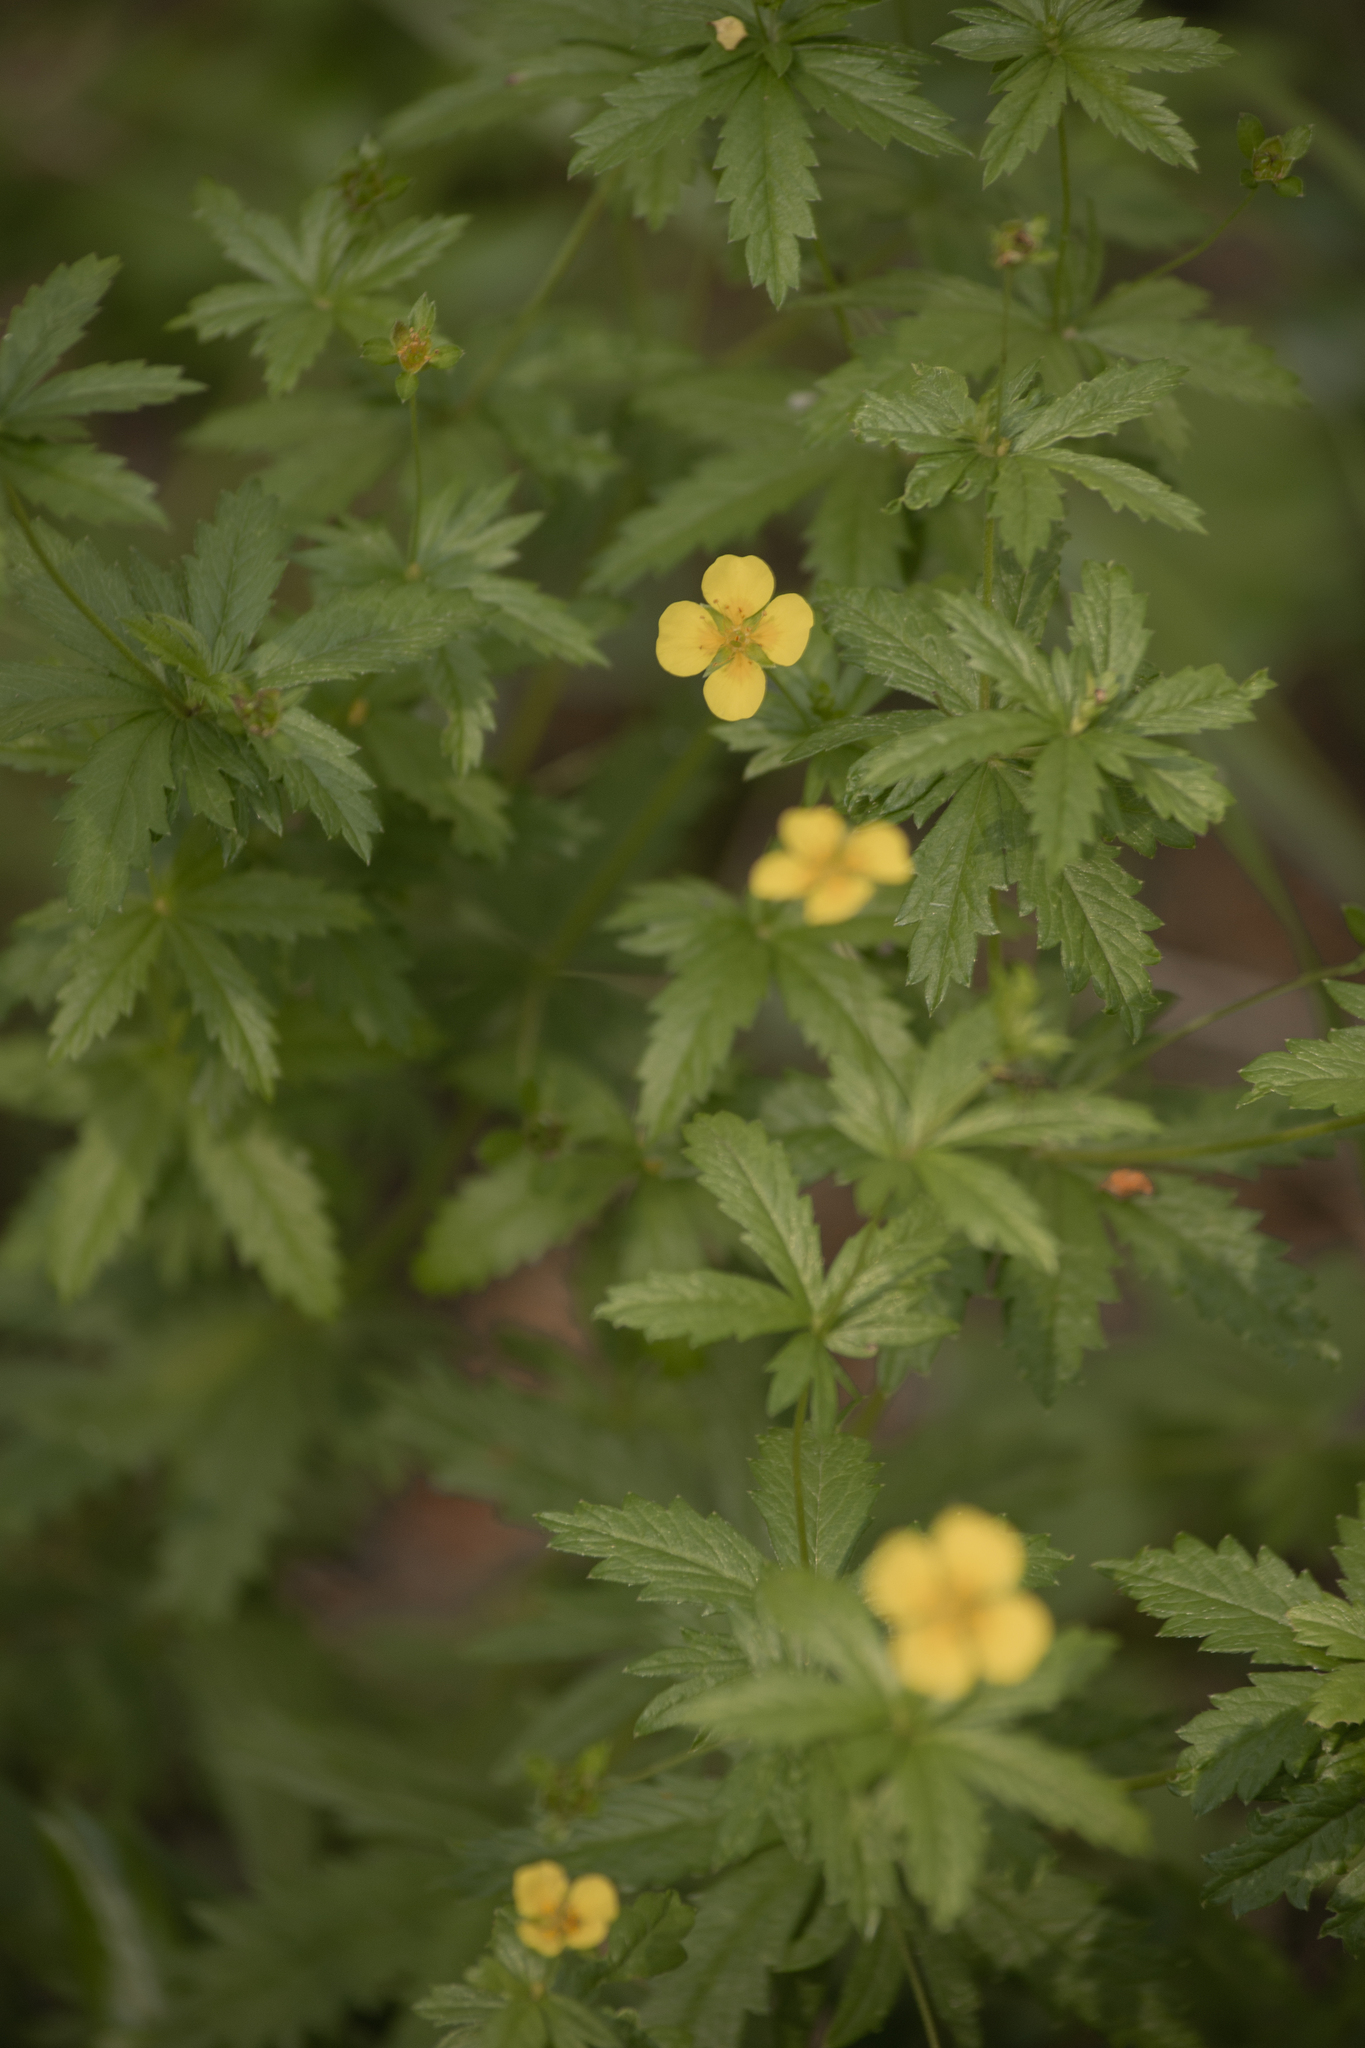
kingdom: Plantae
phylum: Tracheophyta
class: Magnoliopsida
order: Rosales
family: Rosaceae
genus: Potentilla
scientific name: Potentilla erecta
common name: Tormentil
